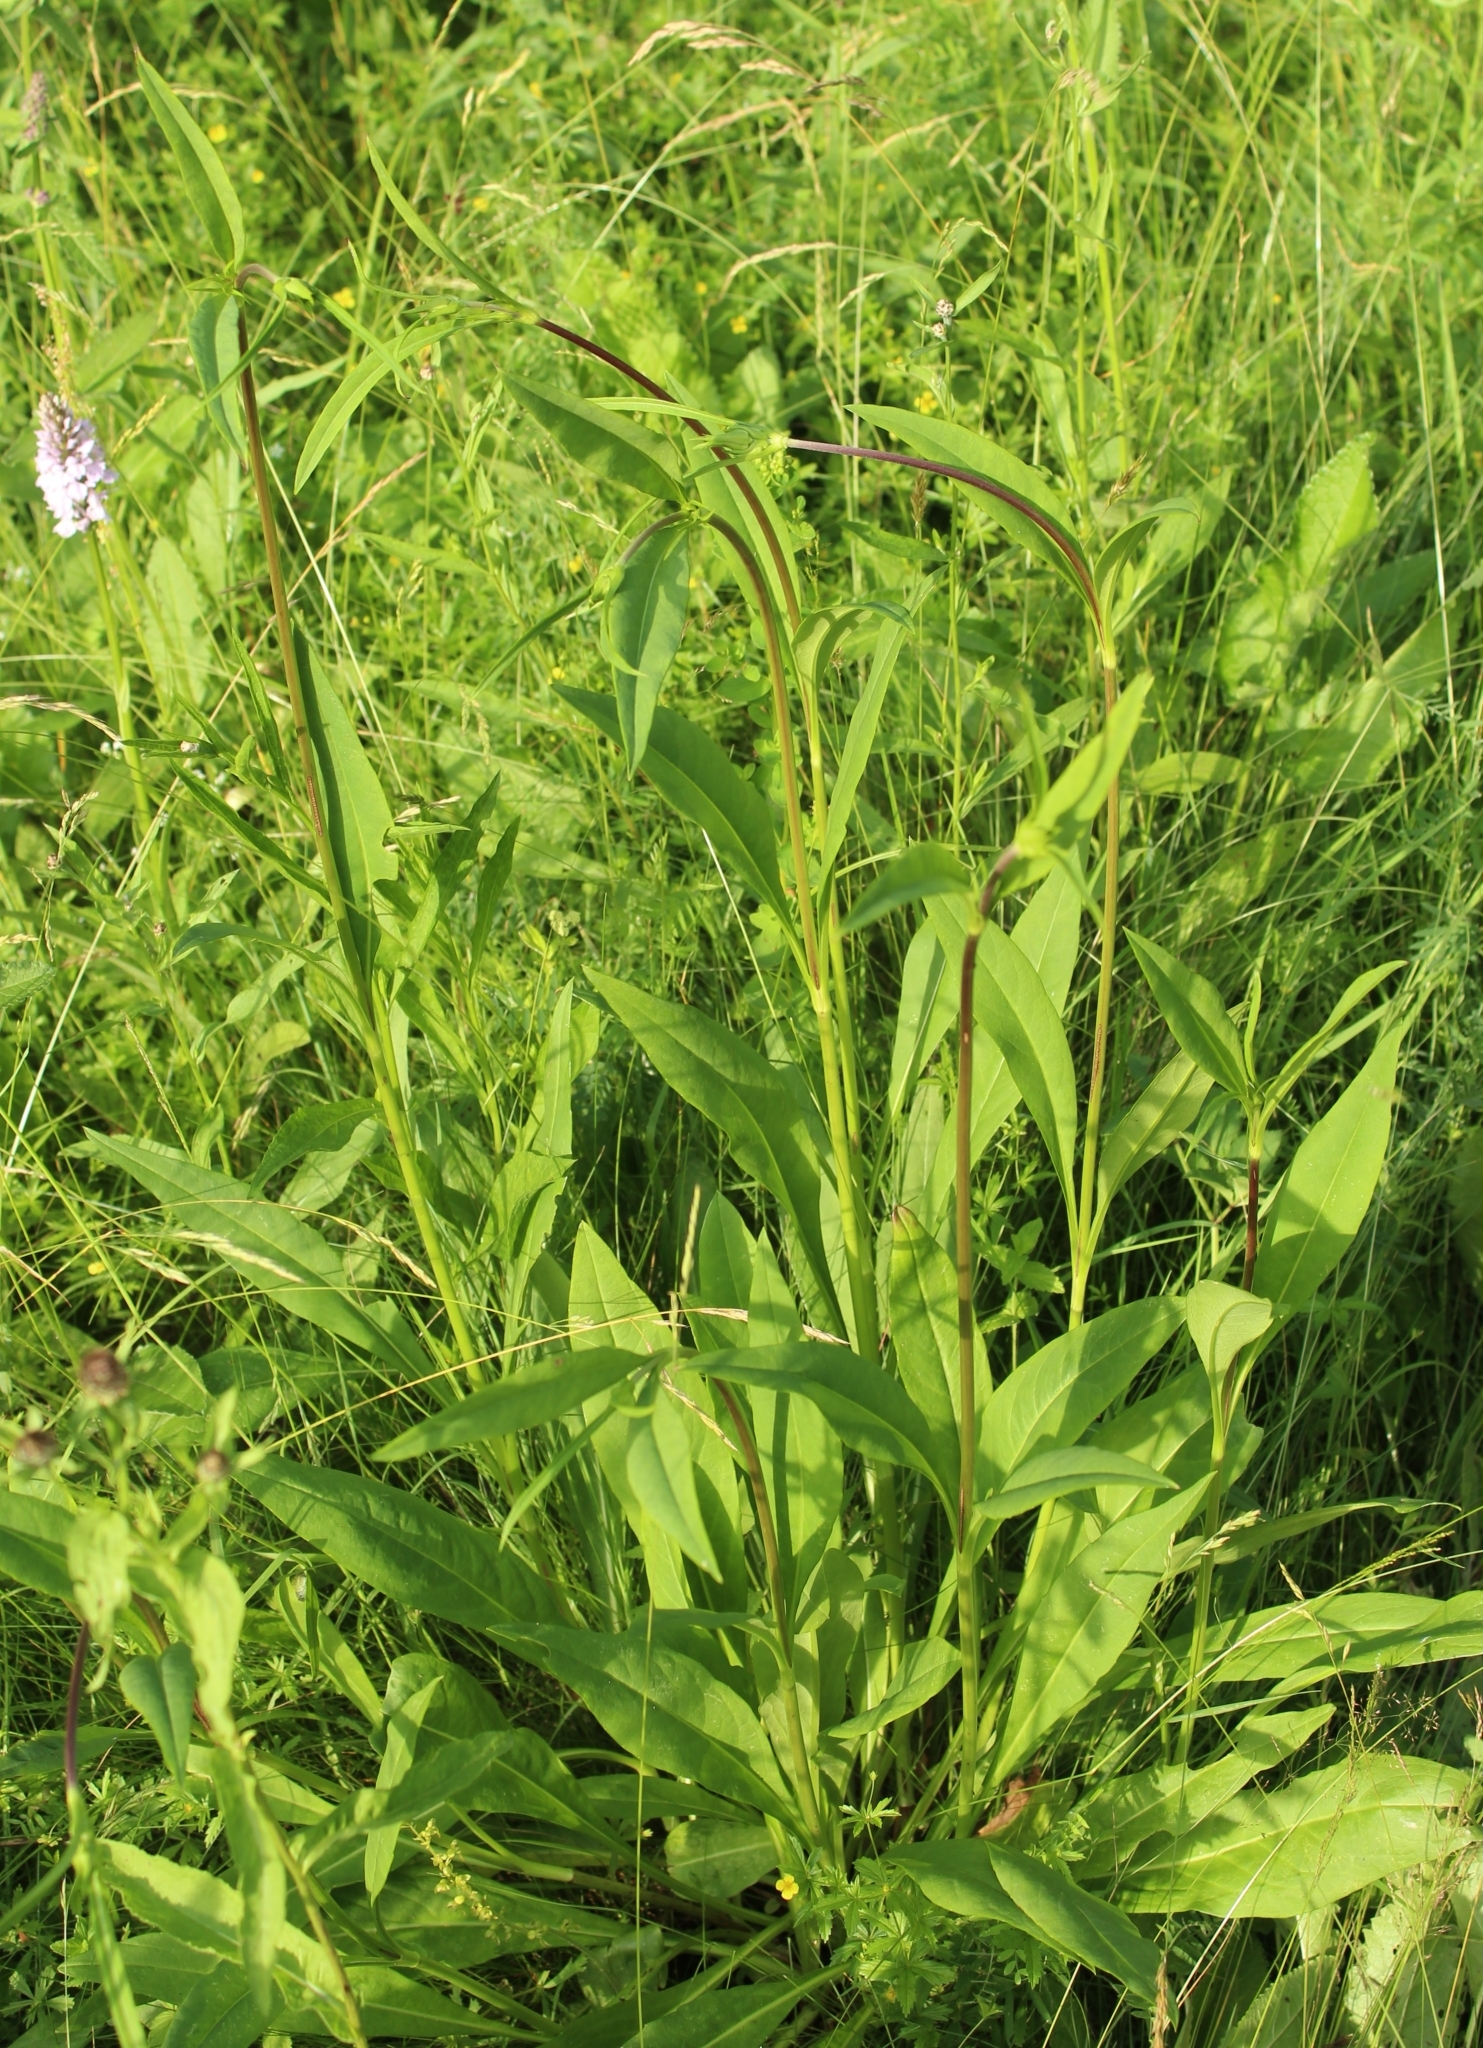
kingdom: Plantae
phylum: Tracheophyta
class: Magnoliopsida
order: Dipsacales
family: Caprifoliaceae
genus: Succisa
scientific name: Succisa pratensis
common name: Devil's-bit
